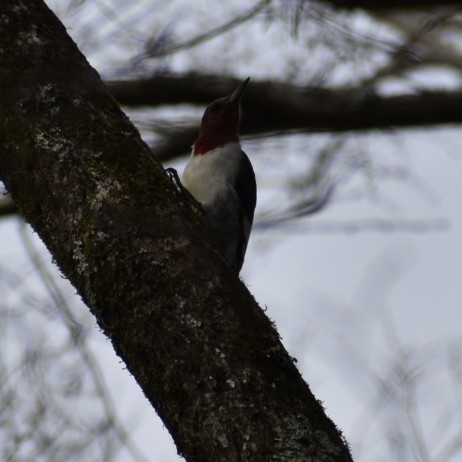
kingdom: Animalia
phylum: Chordata
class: Aves
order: Piciformes
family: Picidae
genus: Melanerpes
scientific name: Melanerpes erythrocephalus
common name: Red-headed woodpecker
